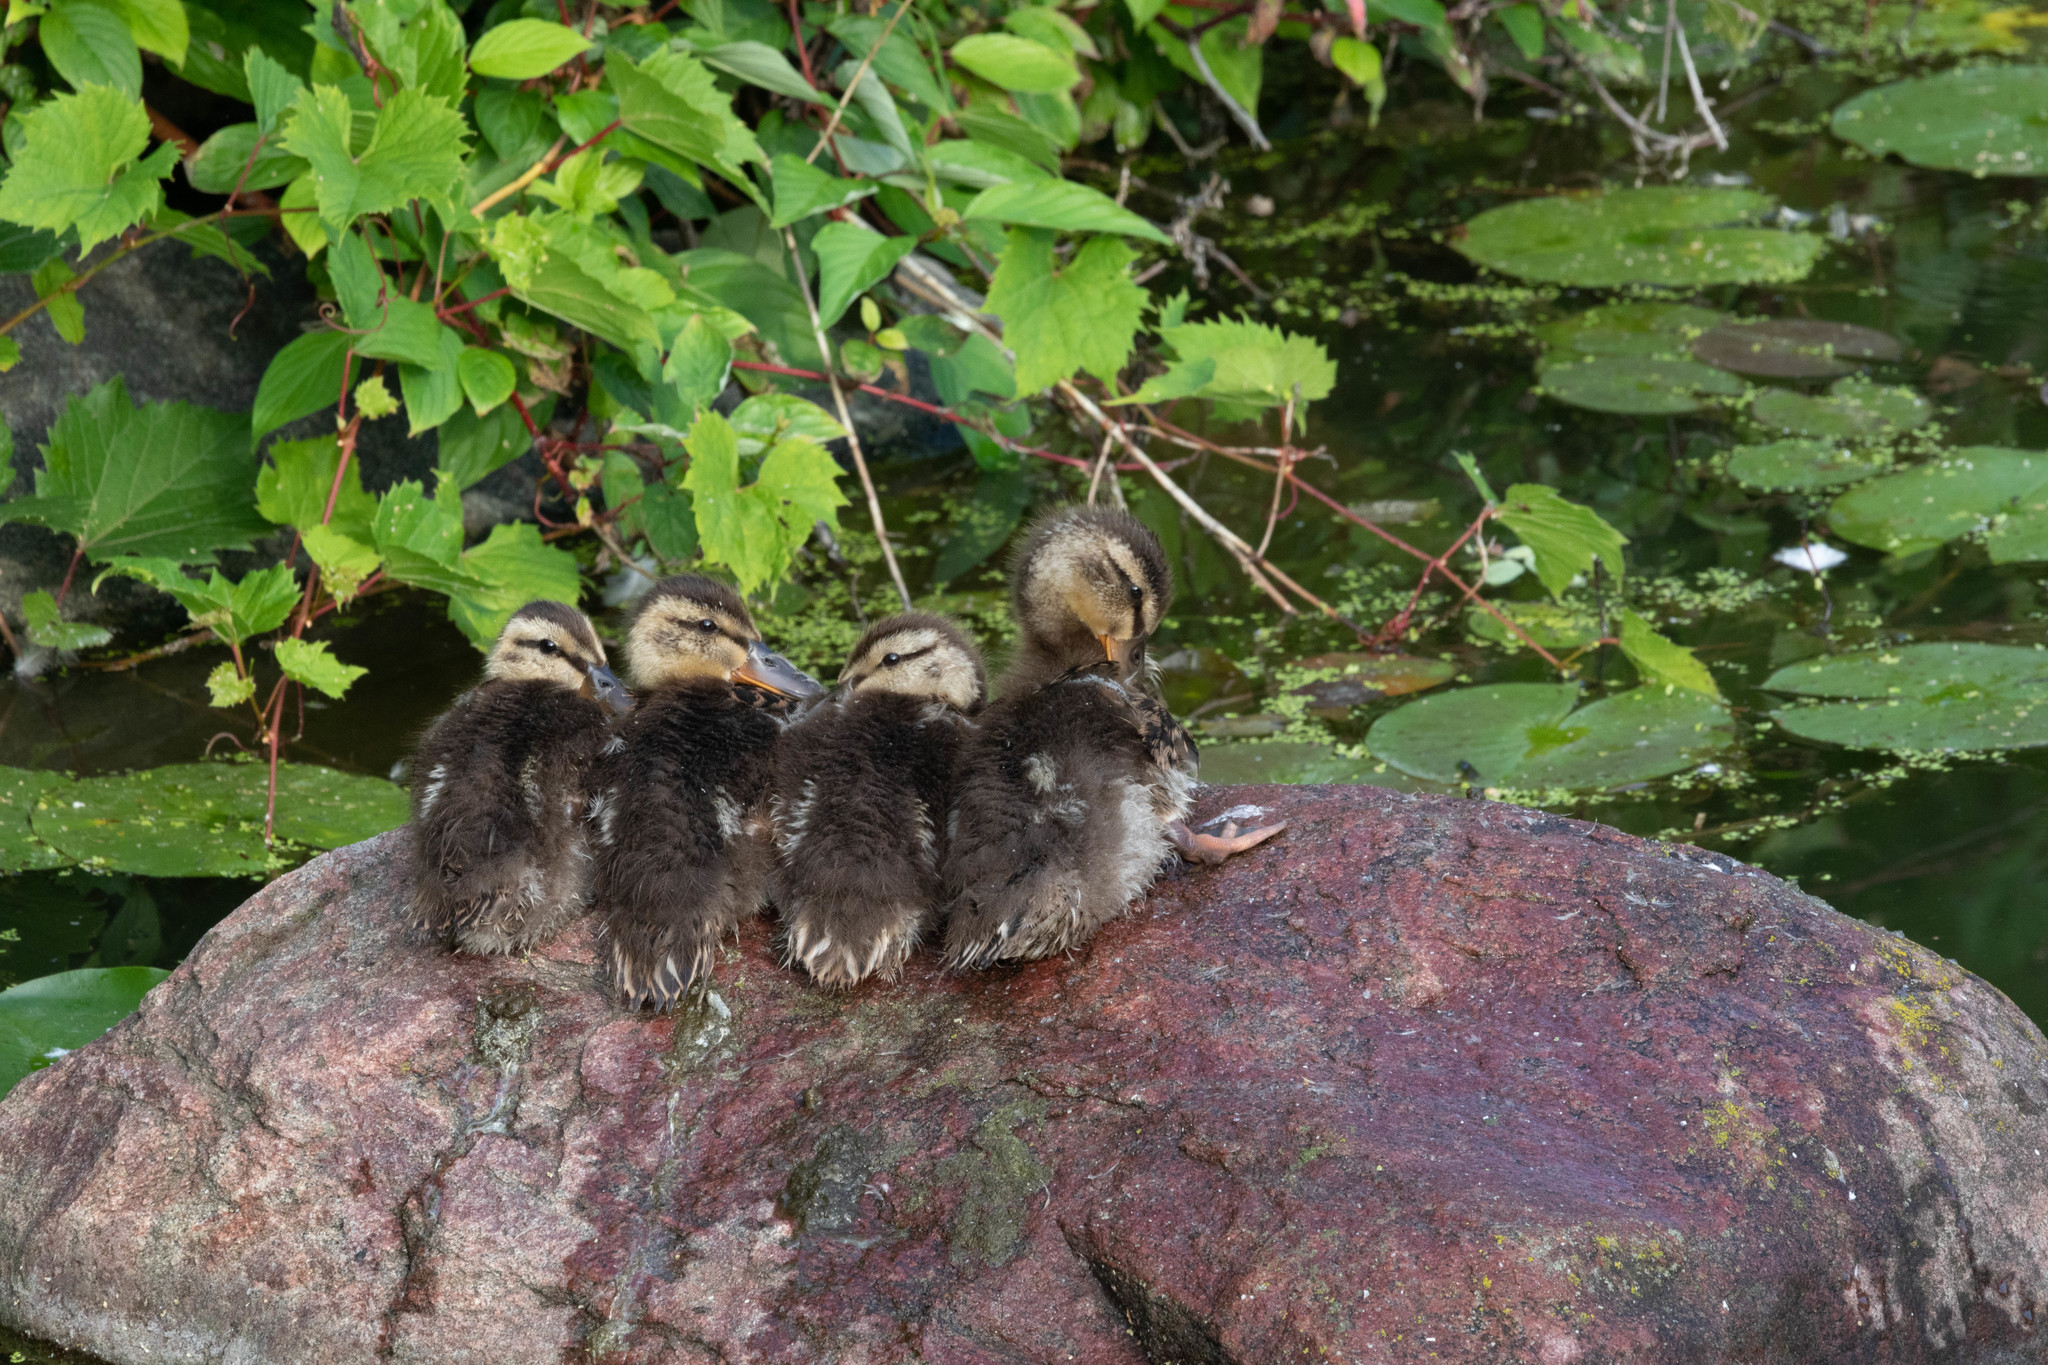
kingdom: Animalia
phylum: Chordata
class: Aves
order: Anseriformes
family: Anatidae
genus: Anas
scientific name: Anas platyrhynchos
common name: Mallard
